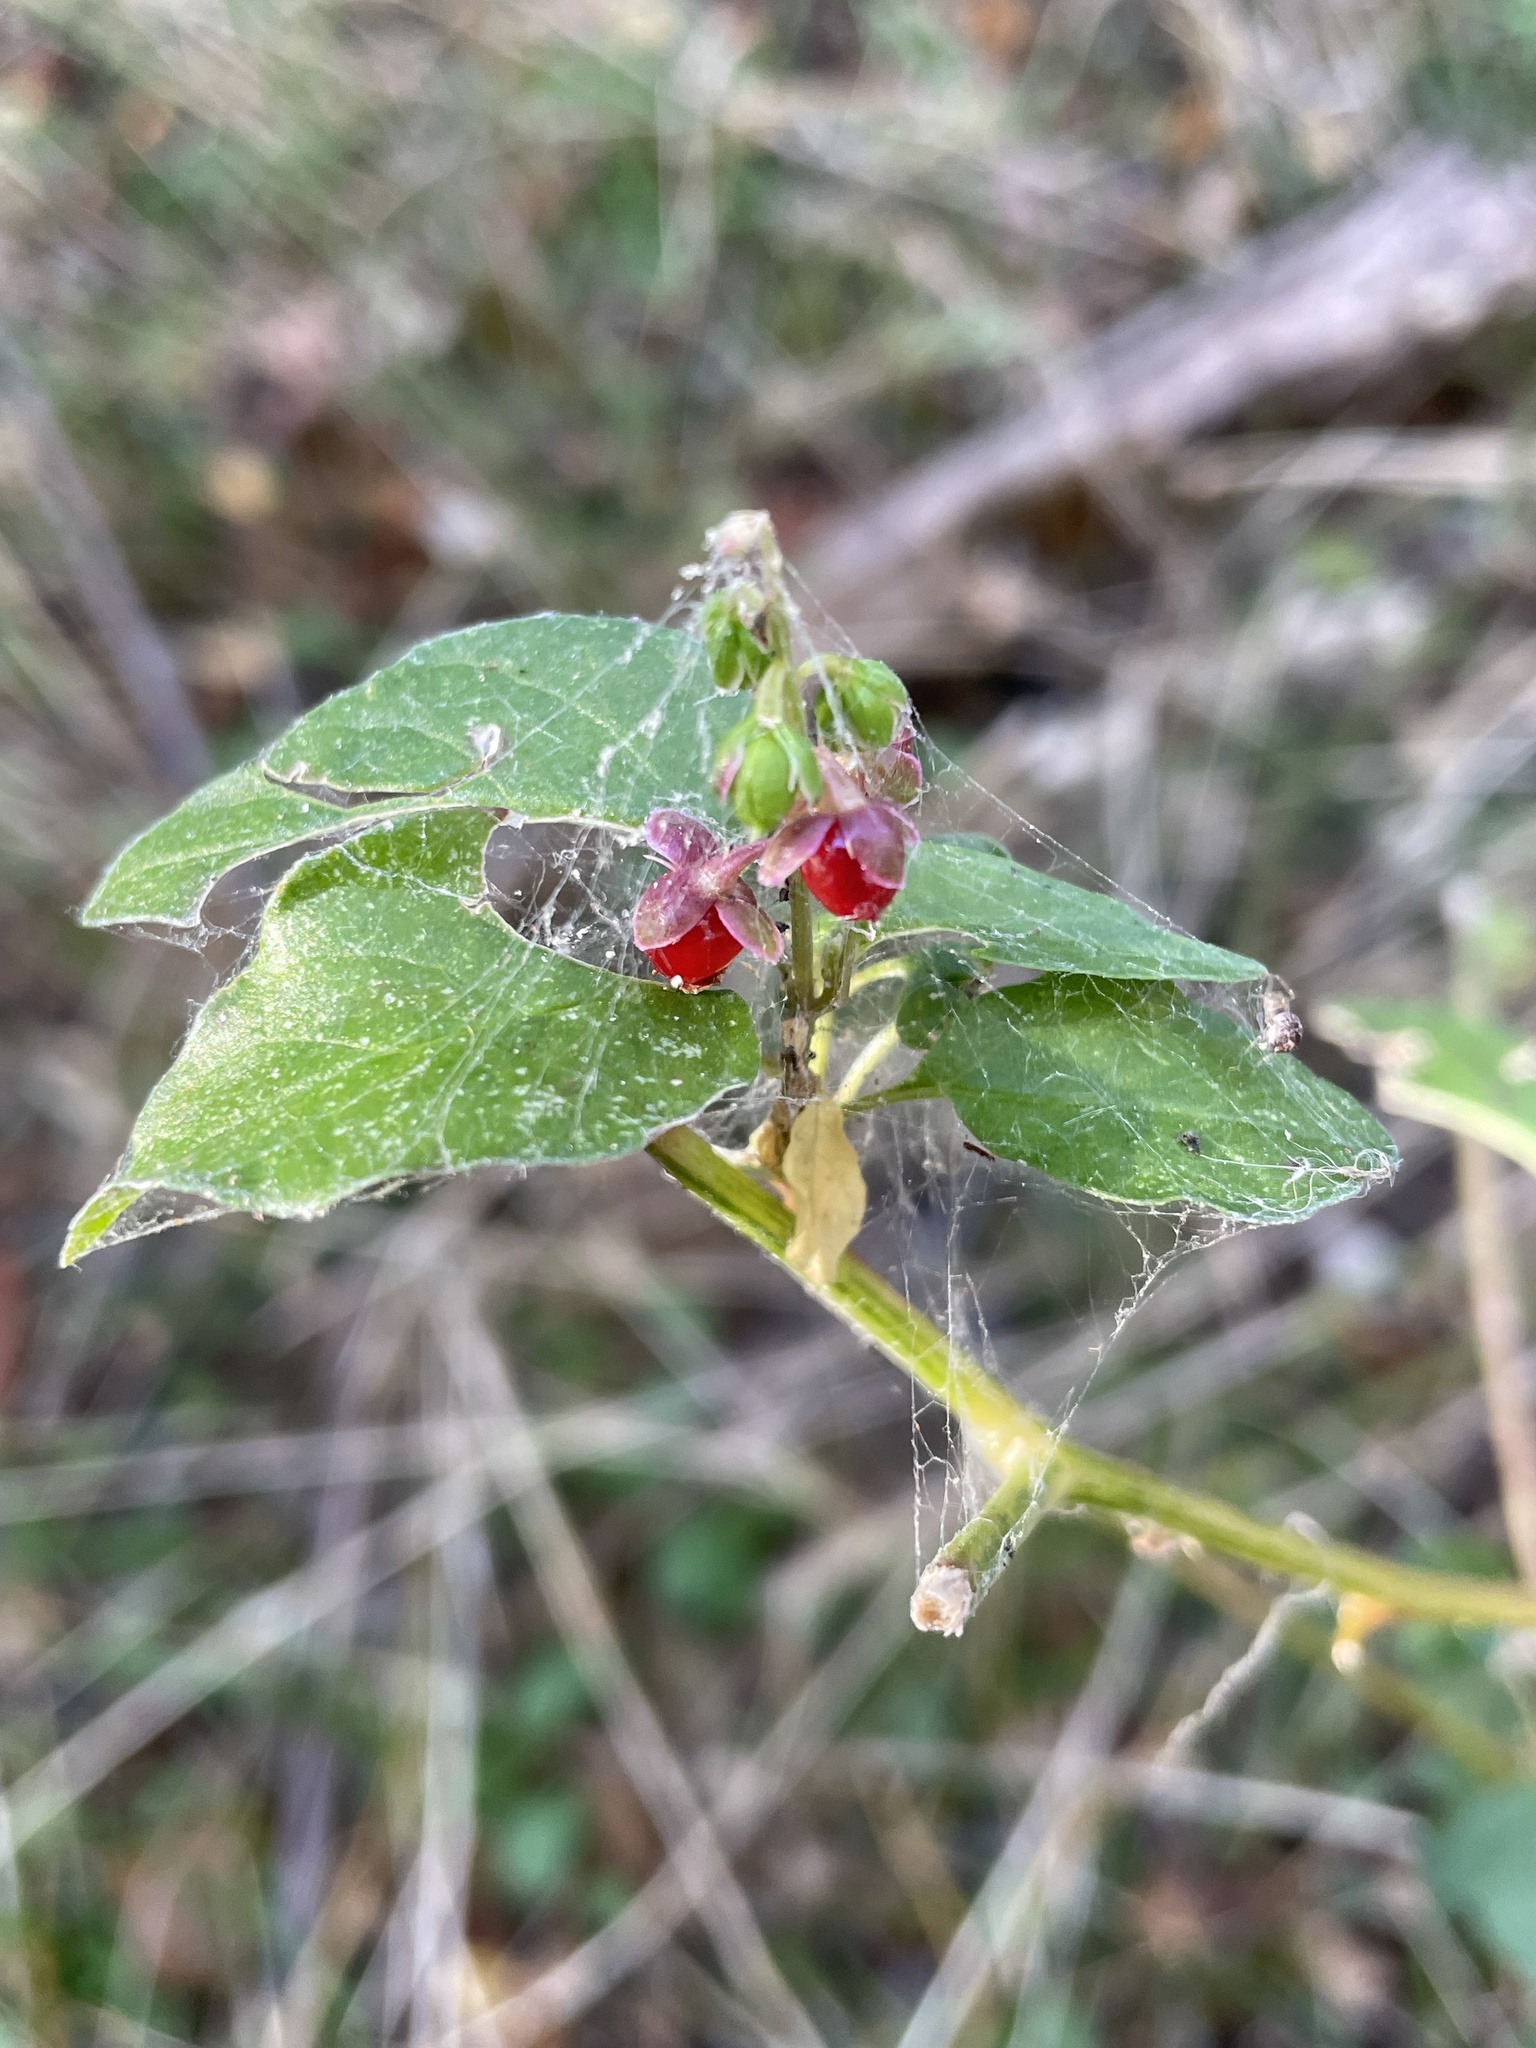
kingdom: Plantae
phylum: Tracheophyta
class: Magnoliopsida
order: Caryophyllales
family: Phytolaccaceae
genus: Rivina
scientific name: Rivina humilis
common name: Rougeplant
